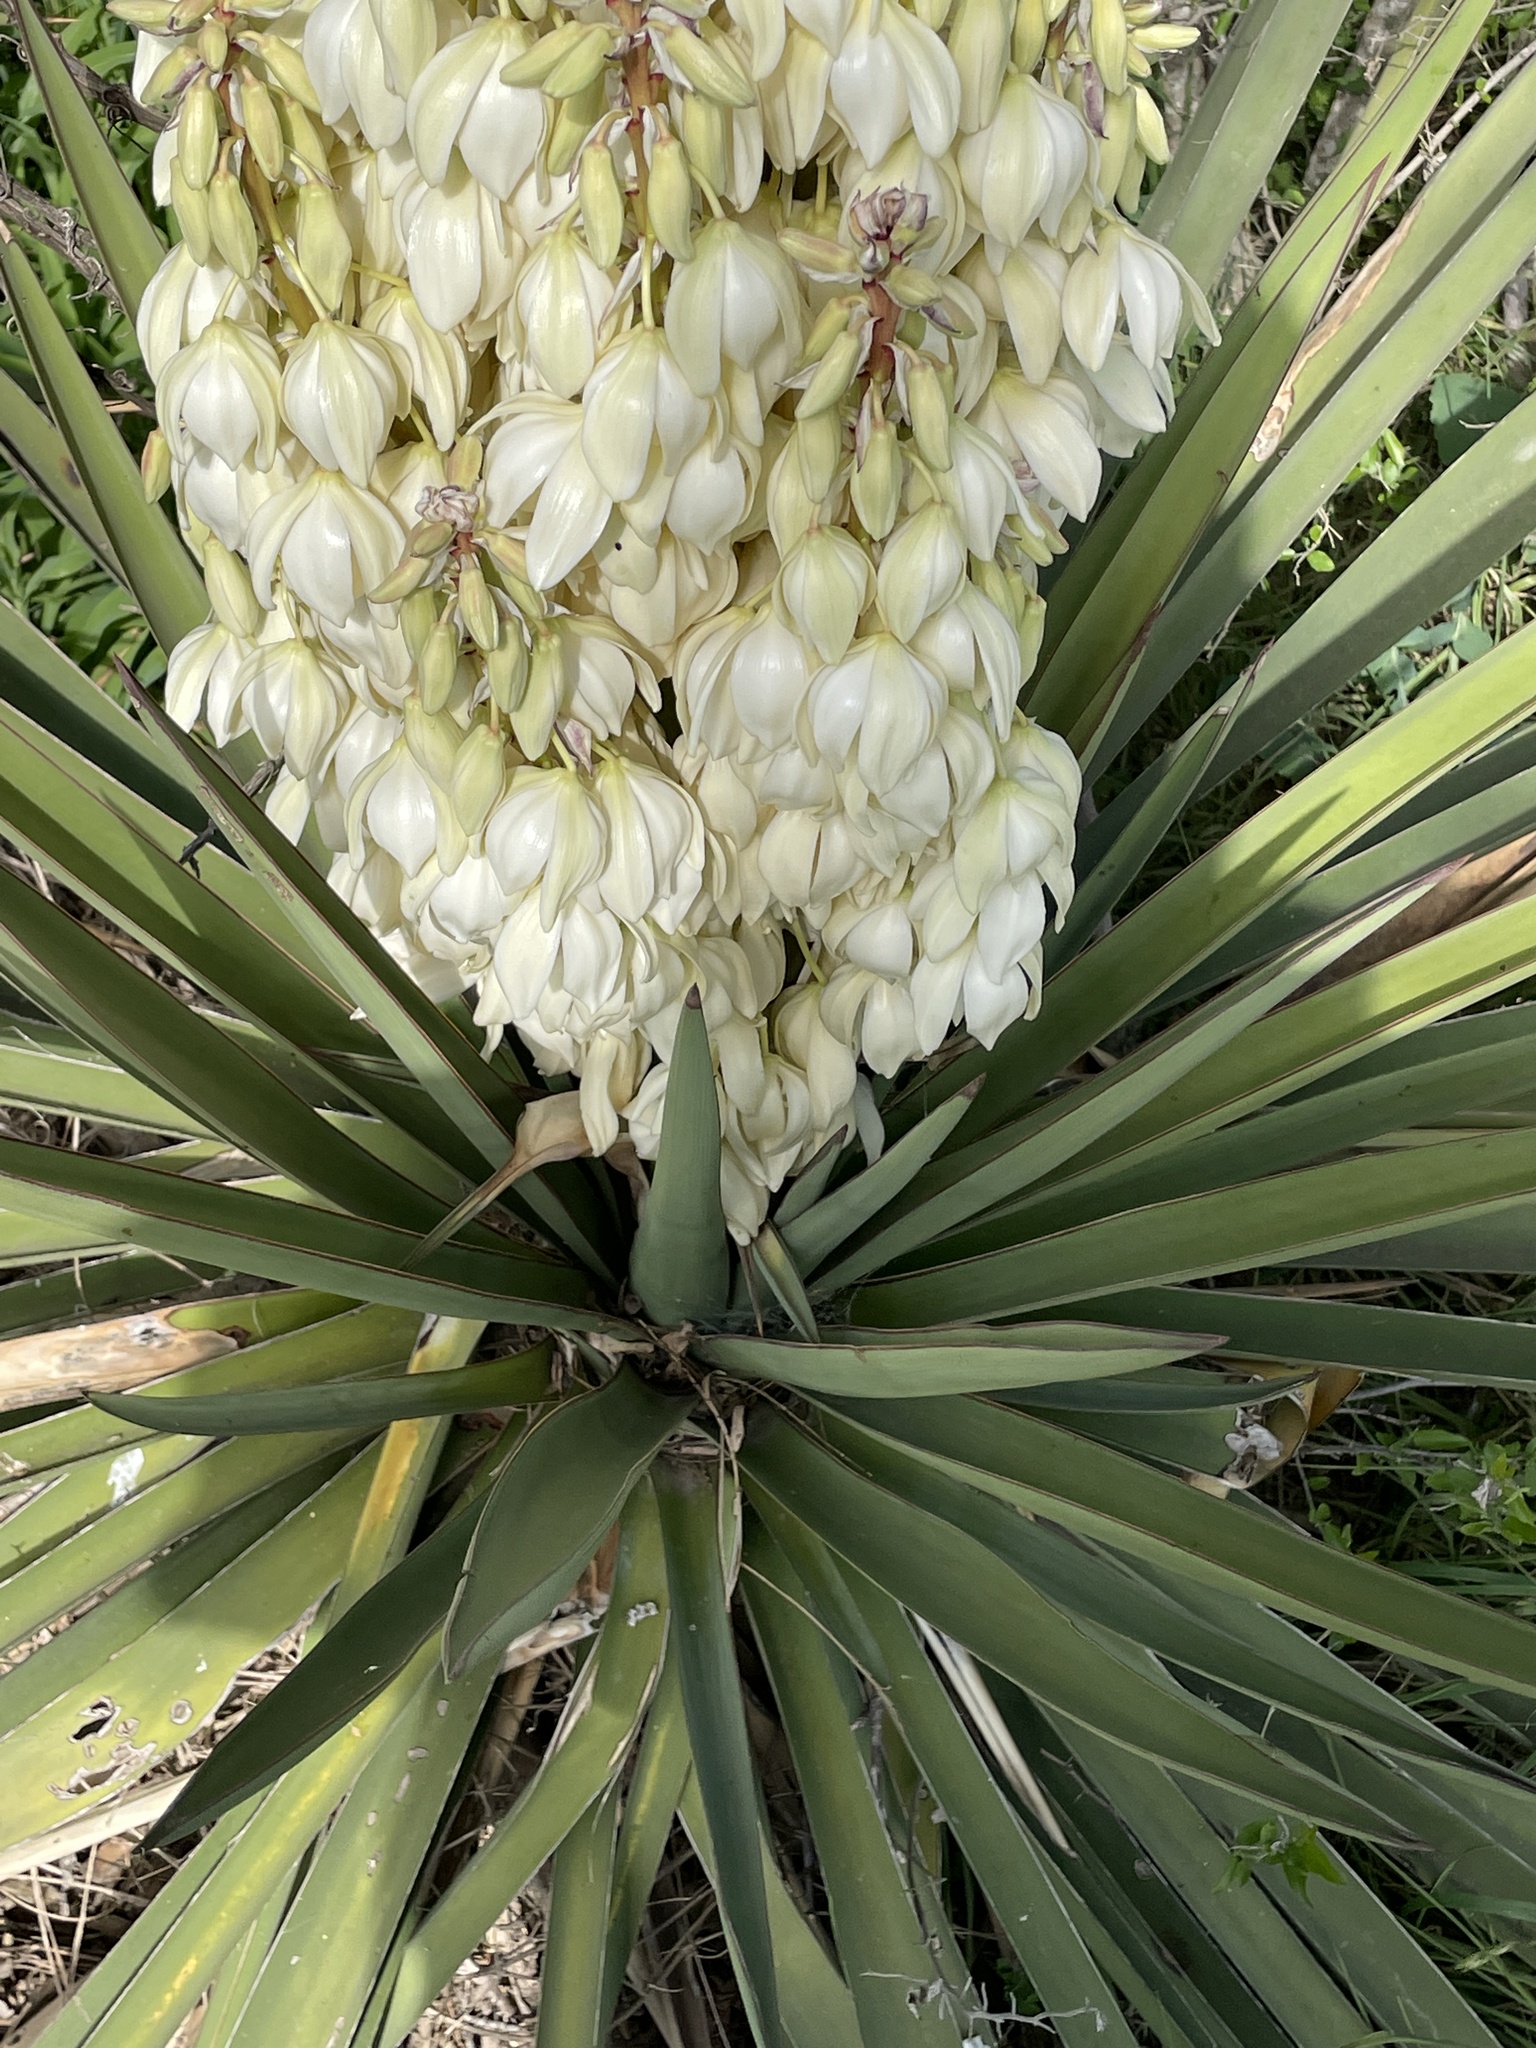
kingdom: Plantae
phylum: Tracheophyta
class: Liliopsida
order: Asparagales
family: Asparagaceae
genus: Yucca
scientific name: Yucca treculiana
